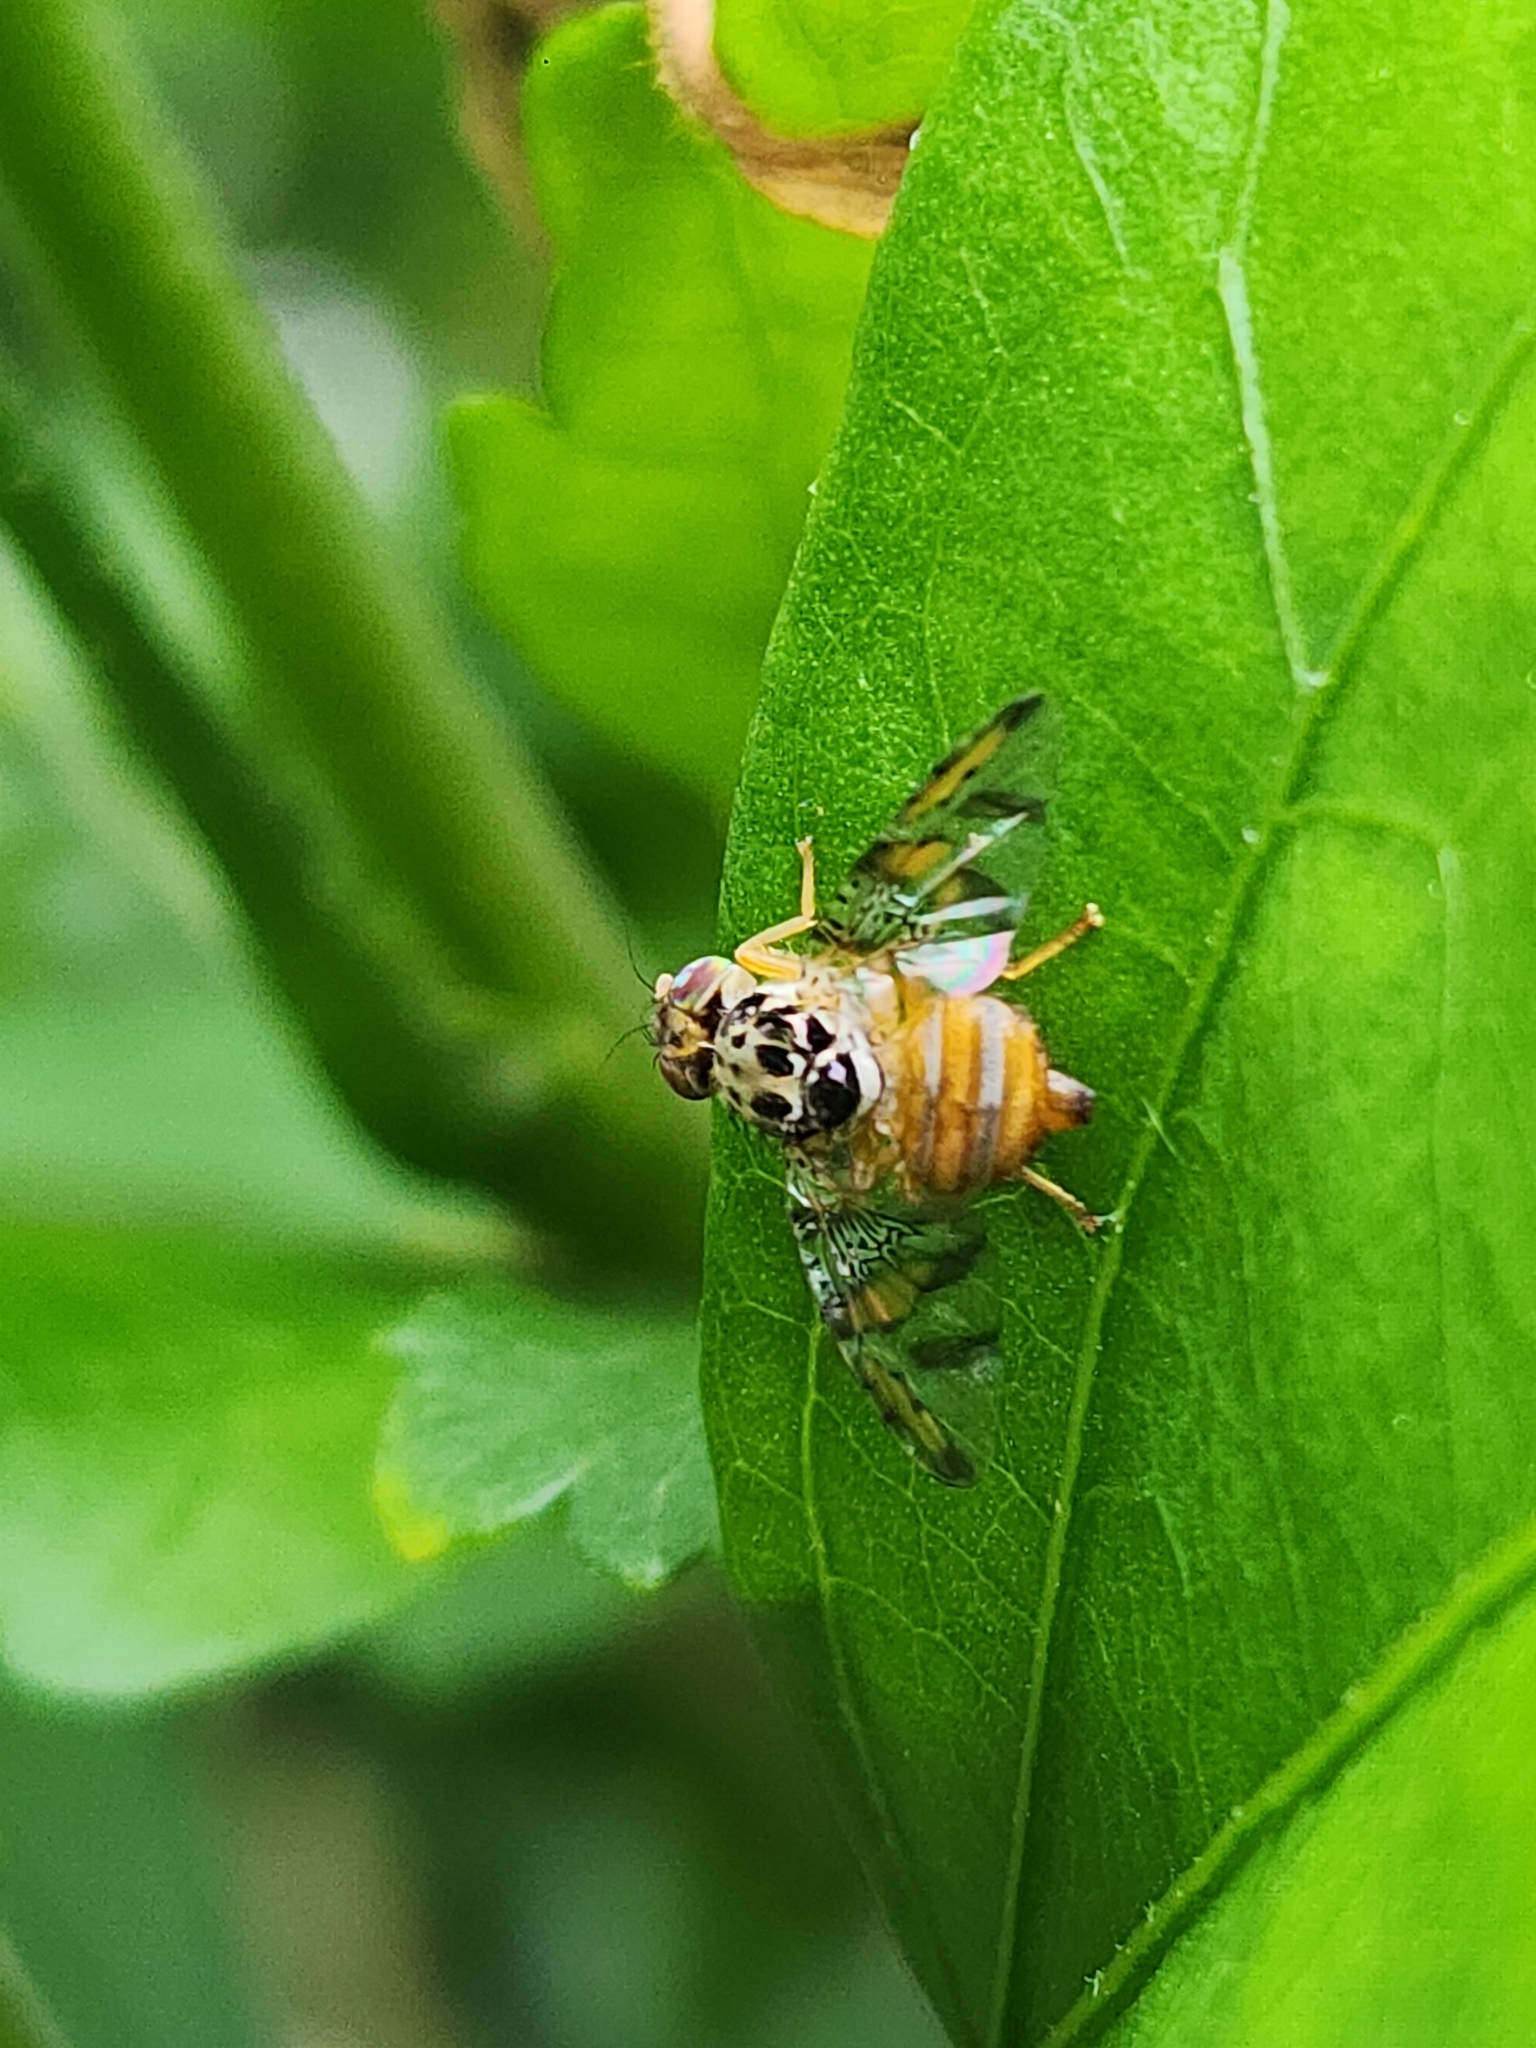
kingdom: Animalia
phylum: Arthropoda
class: Insecta
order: Diptera
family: Tephritidae
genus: Ceratitis
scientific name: Ceratitis capitata
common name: Mediterranean fruit fly
